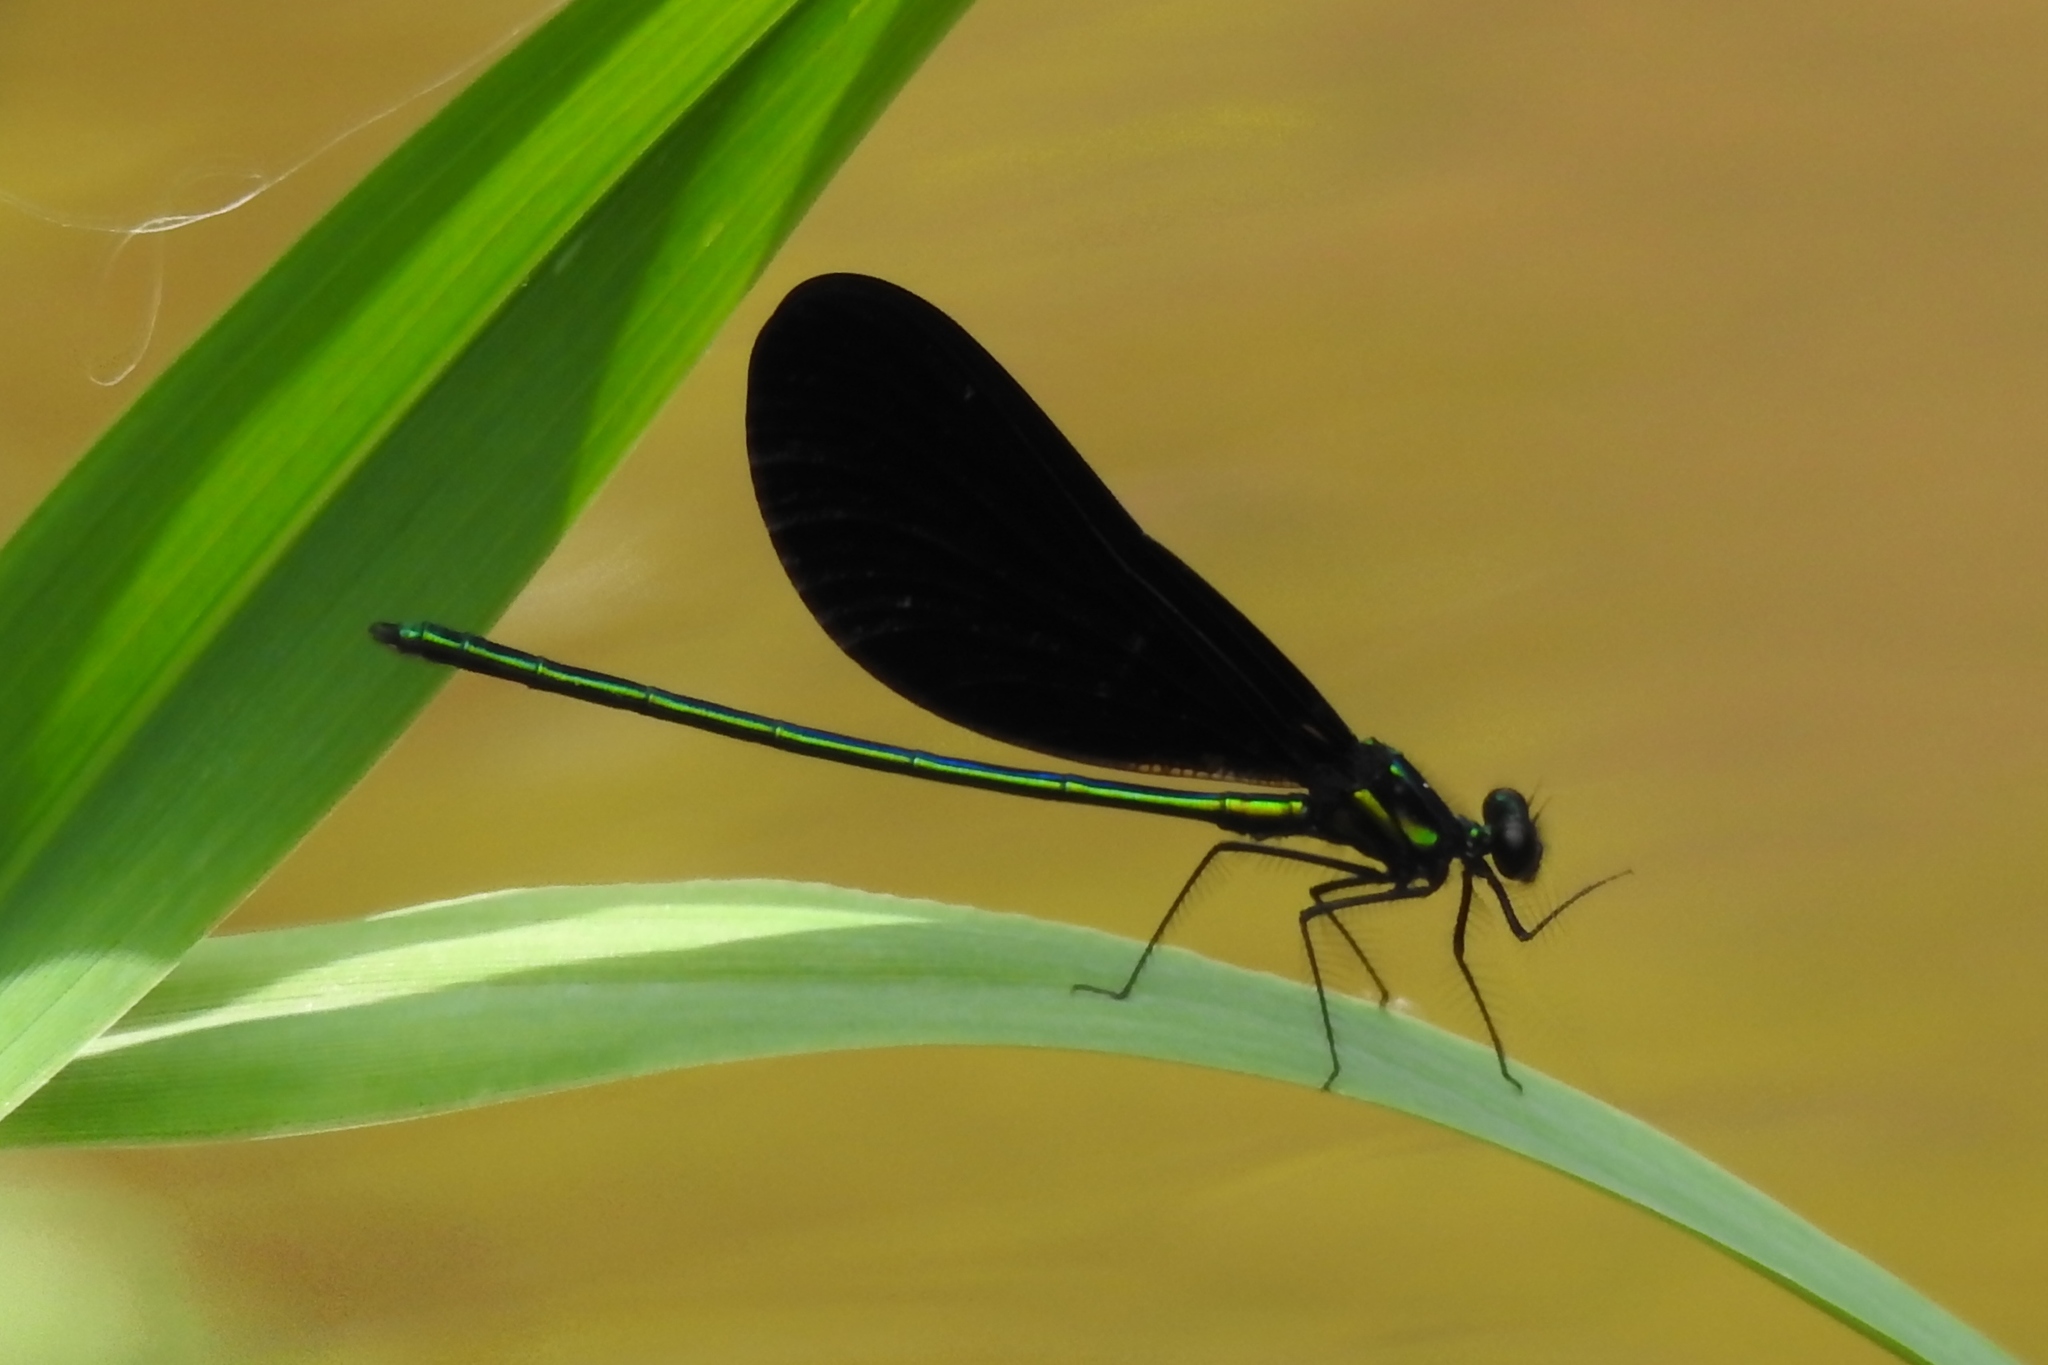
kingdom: Animalia
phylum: Arthropoda
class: Insecta
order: Odonata
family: Calopterygidae
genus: Calopteryx
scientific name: Calopteryx maculata
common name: Ebony jewelwing
